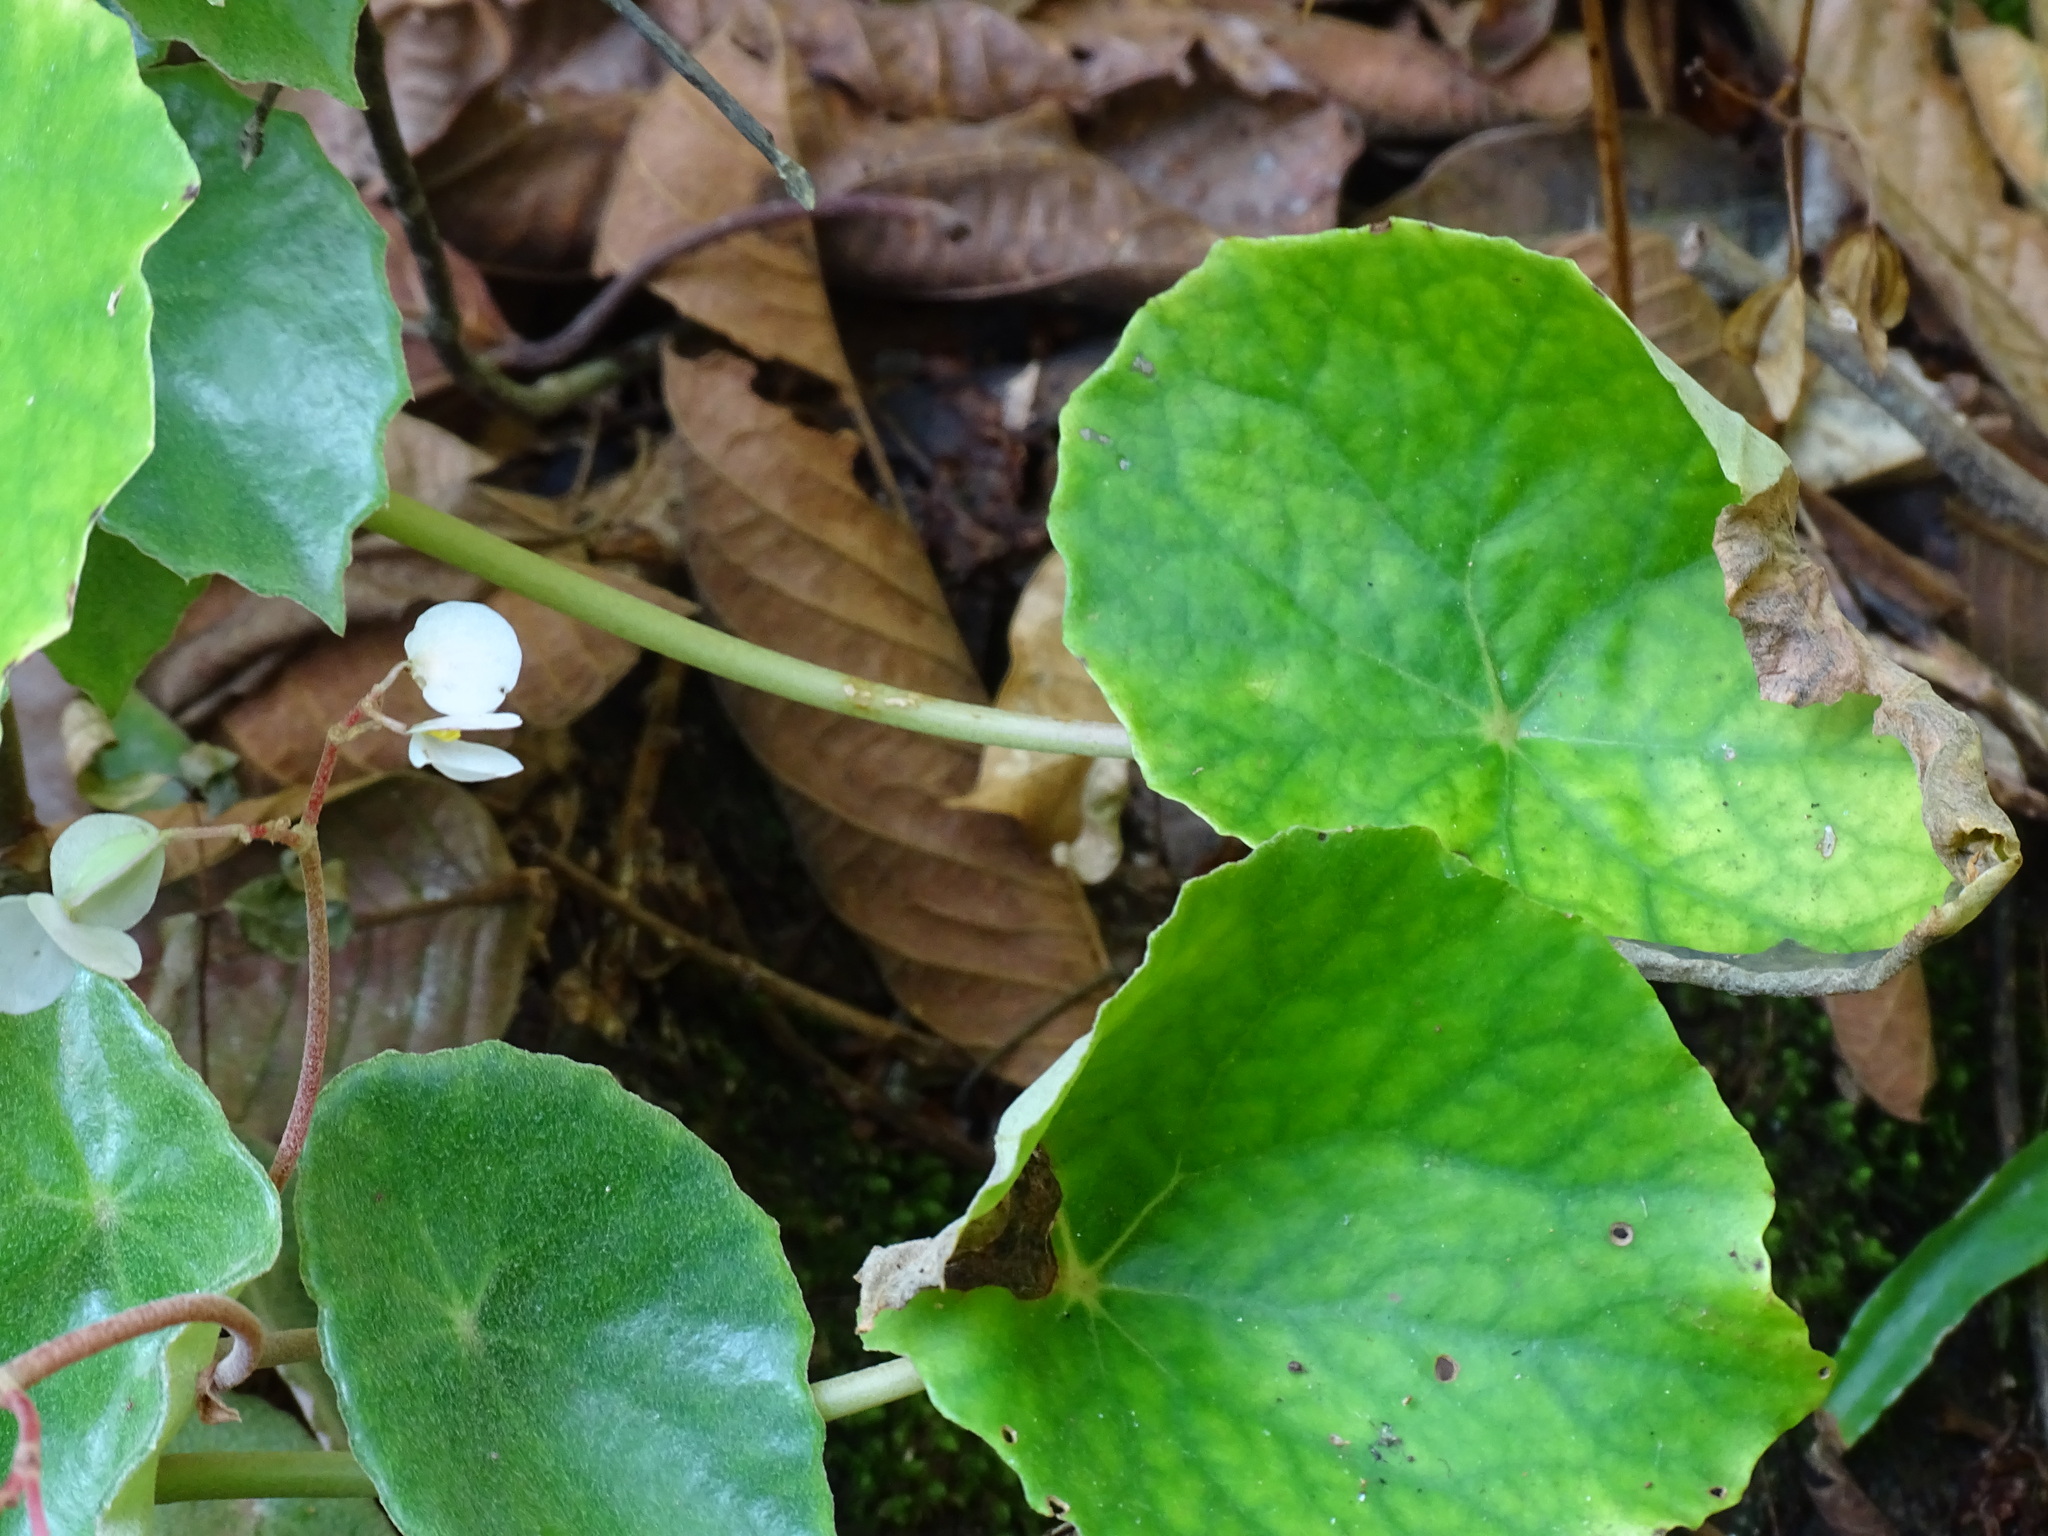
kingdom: Plantae
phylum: Tracheophyta
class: Magnoliopsida
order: Cucurbitales
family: Begoniaceae
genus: Begonia
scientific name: Begonia peltata
